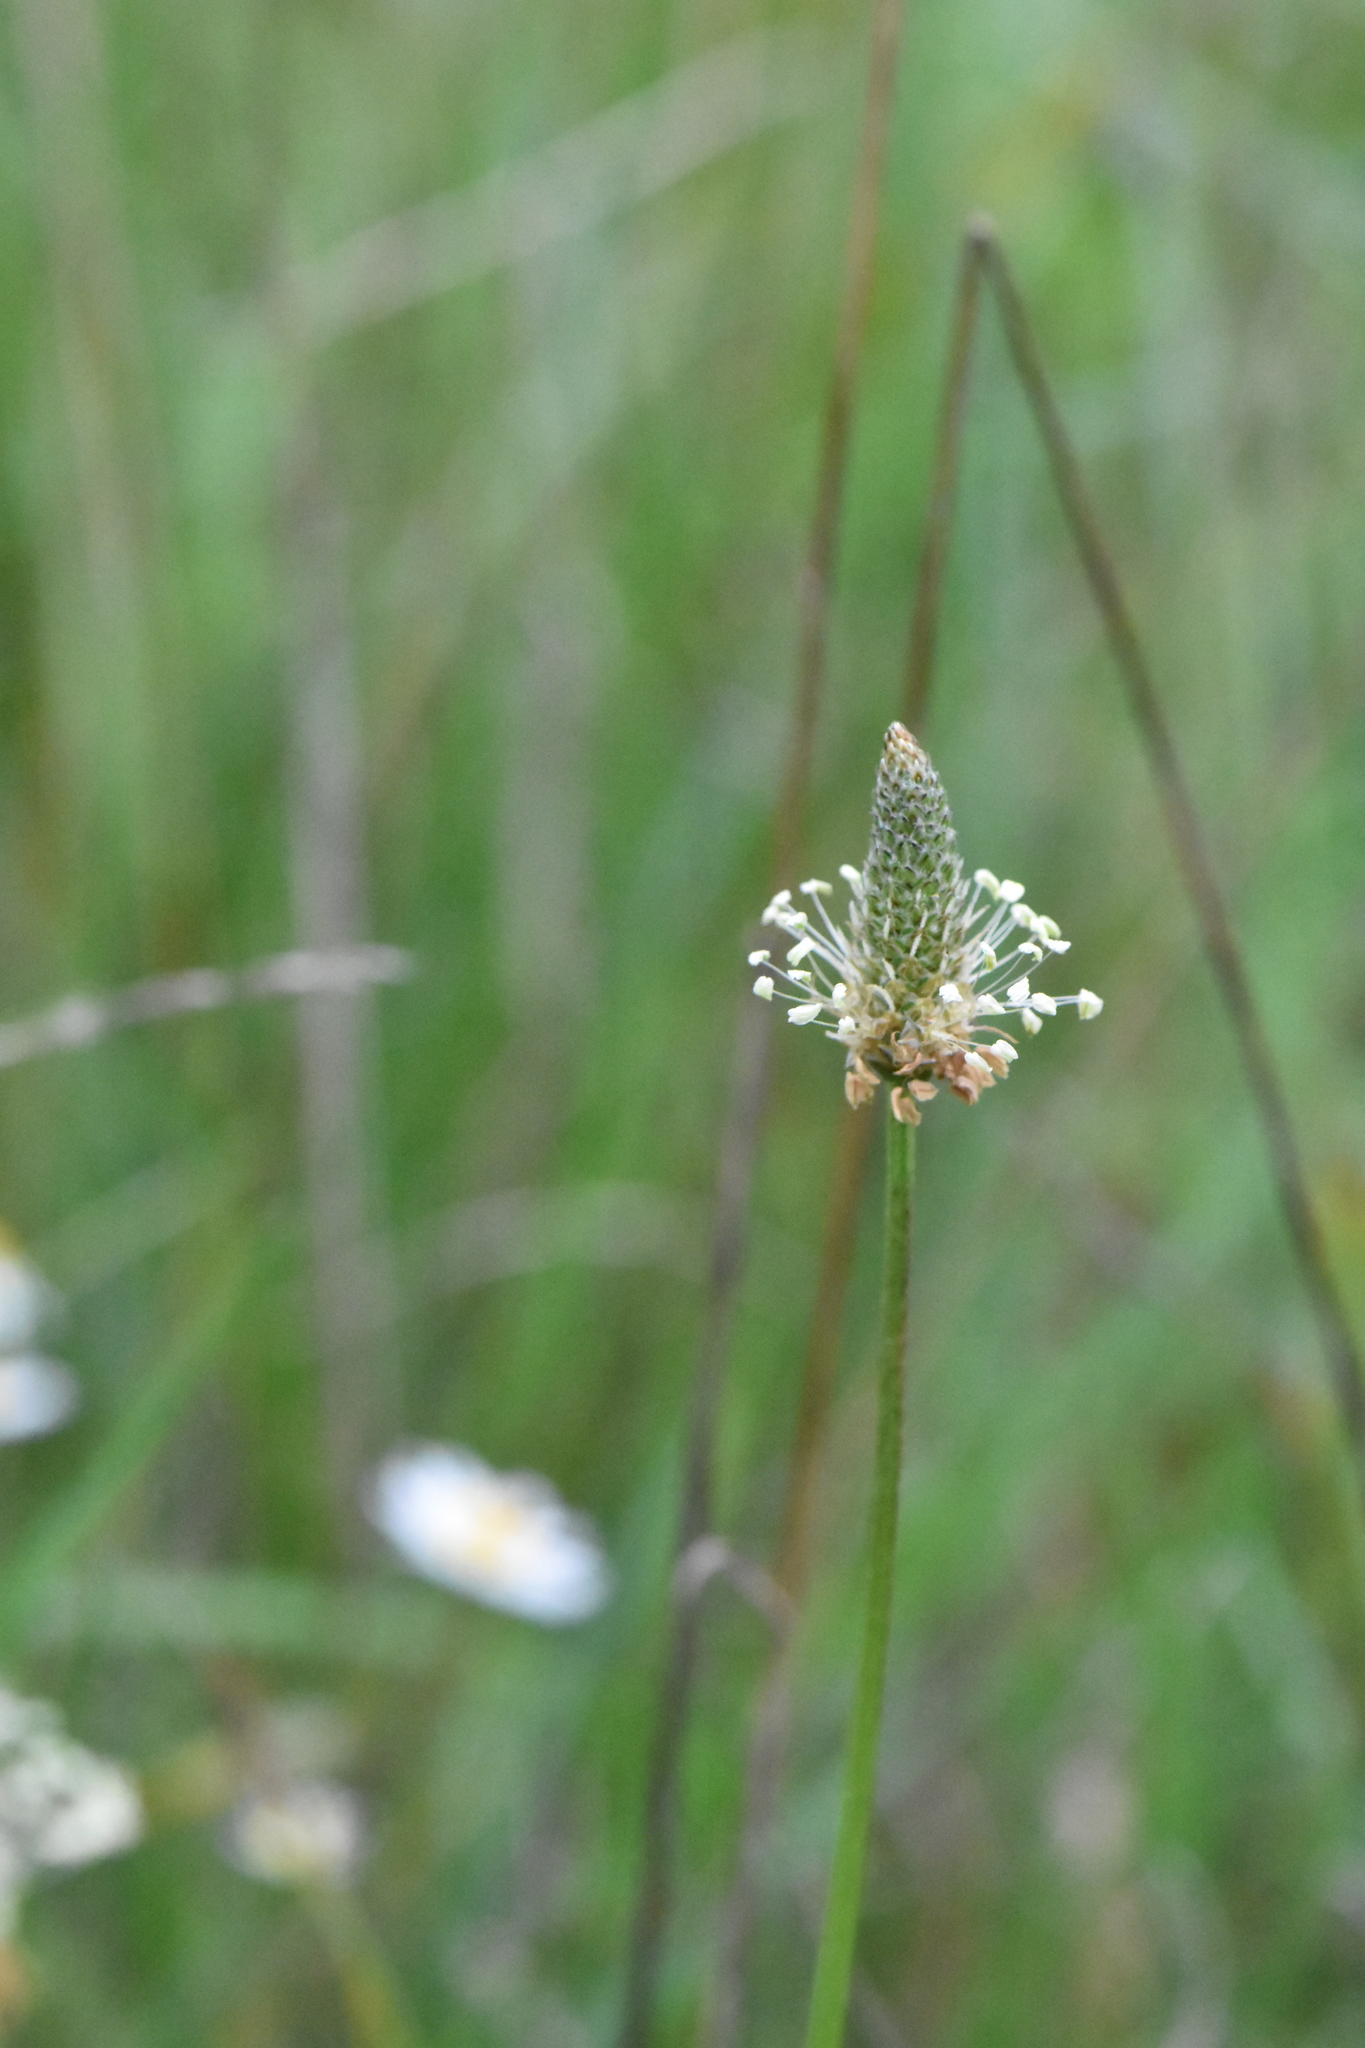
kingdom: Plantae
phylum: Tracheophyta
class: Magnoliopsida
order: Lamiales
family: Plantaginaceae
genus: Plantago
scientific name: Plantago lanceolata
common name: Ribwort plantain
